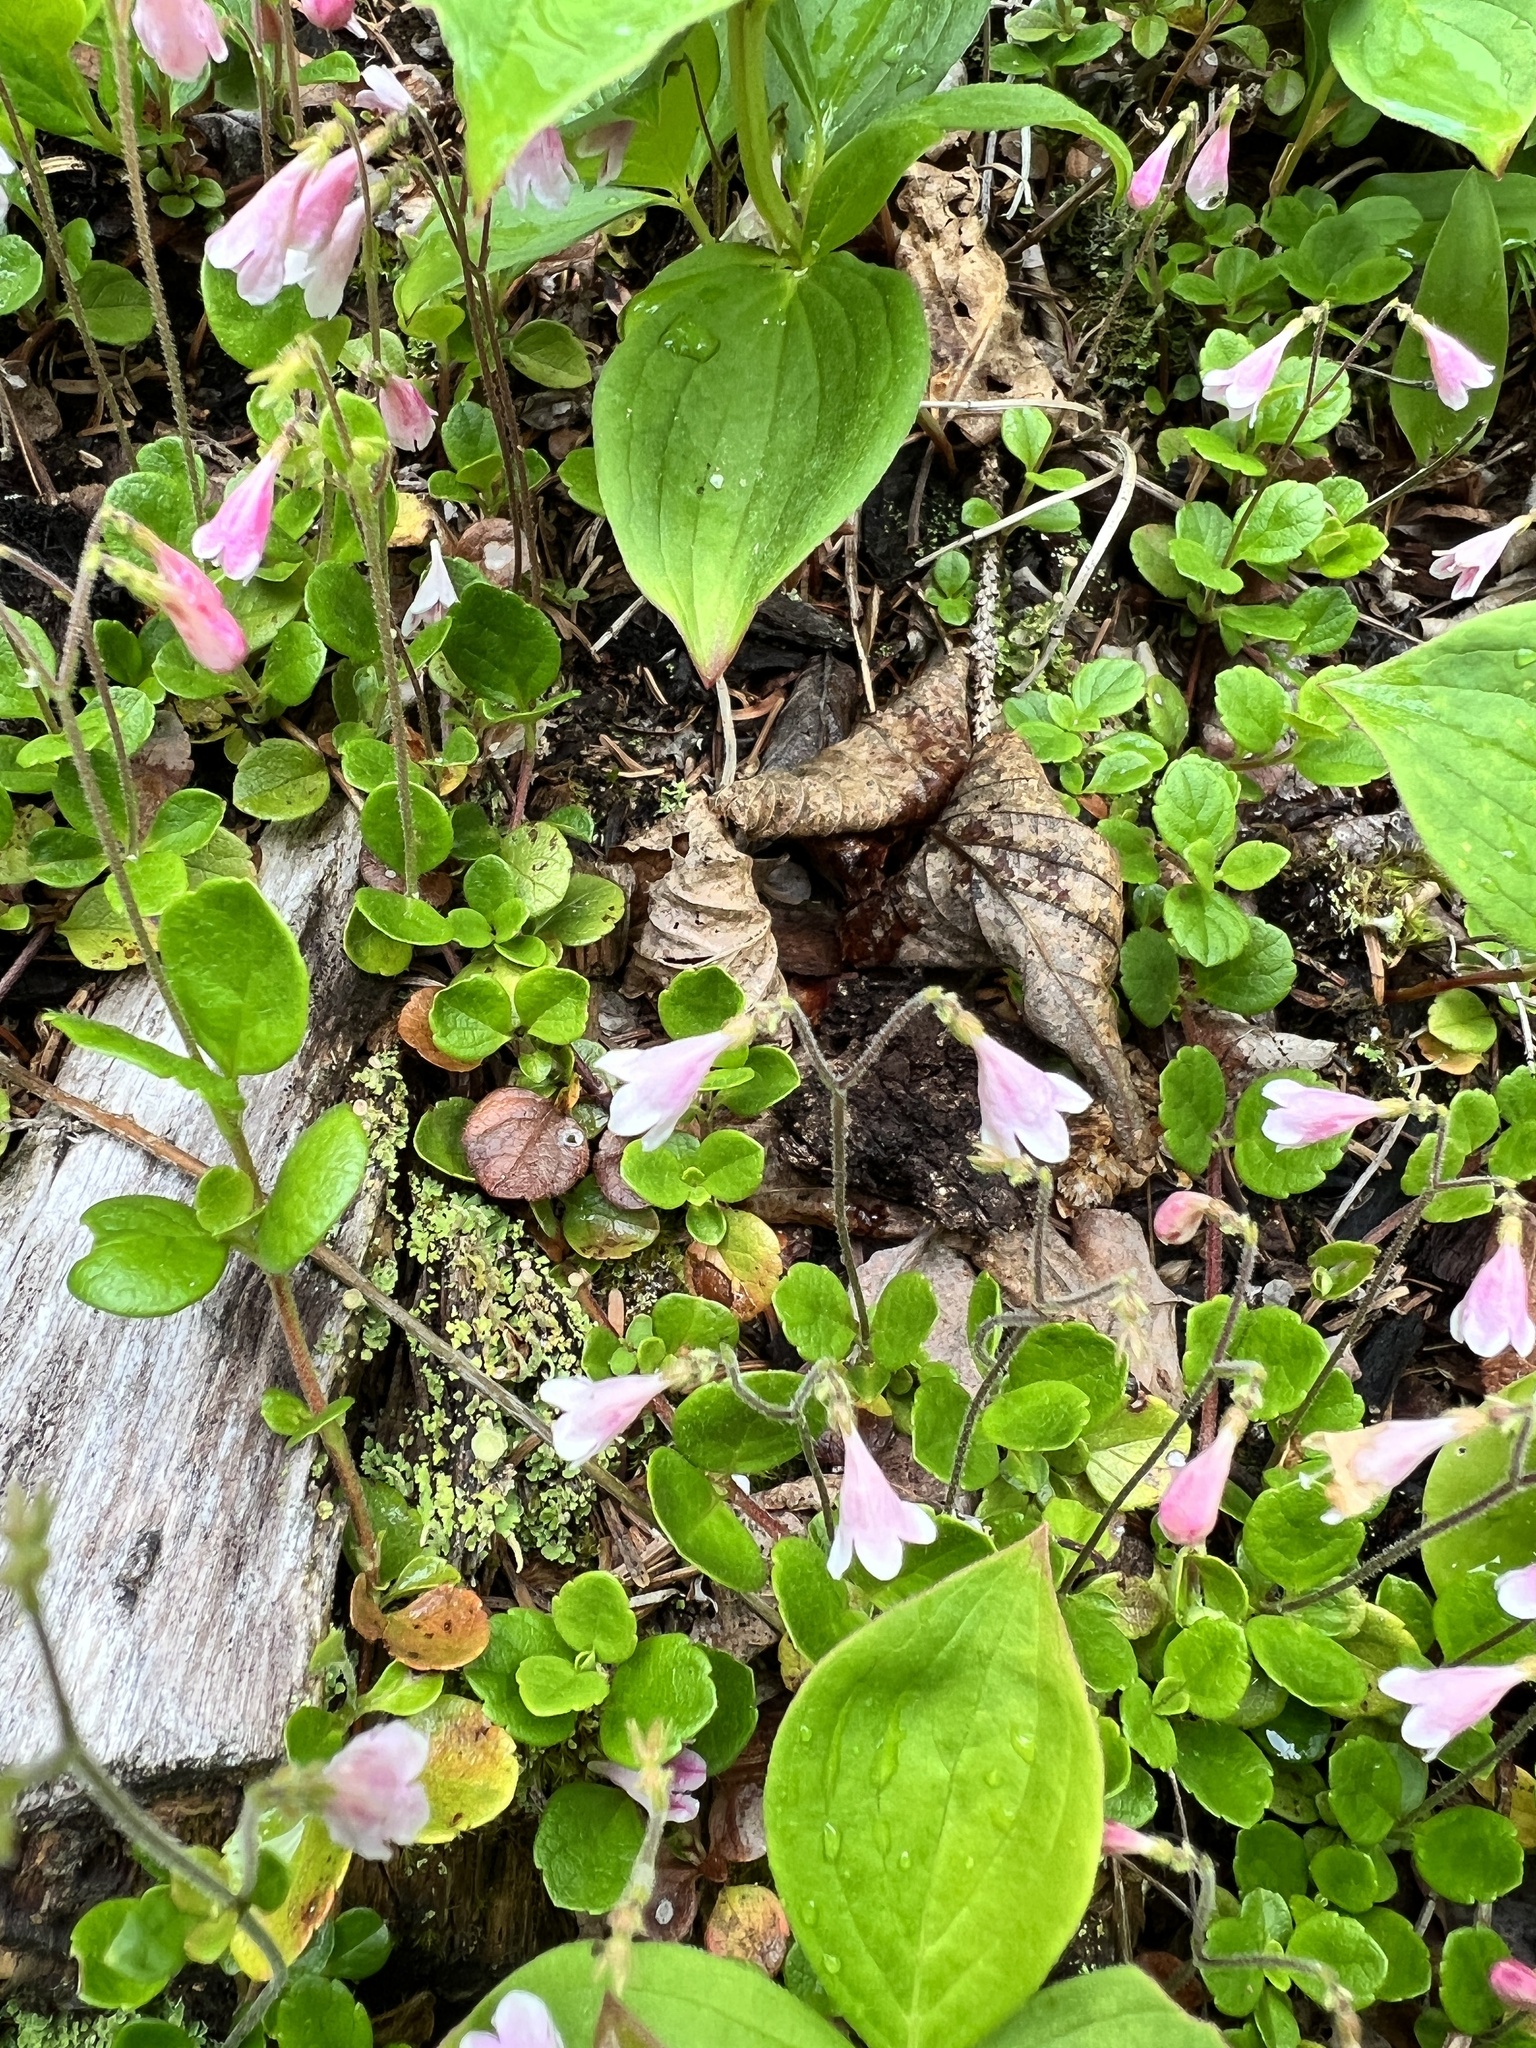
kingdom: Plantae
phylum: Tracheophyta
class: Magnoliopsida
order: Dipsacales
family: Caprifoliaceae
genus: Linnaea
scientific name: Linnaea borealis
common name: Twinflower
